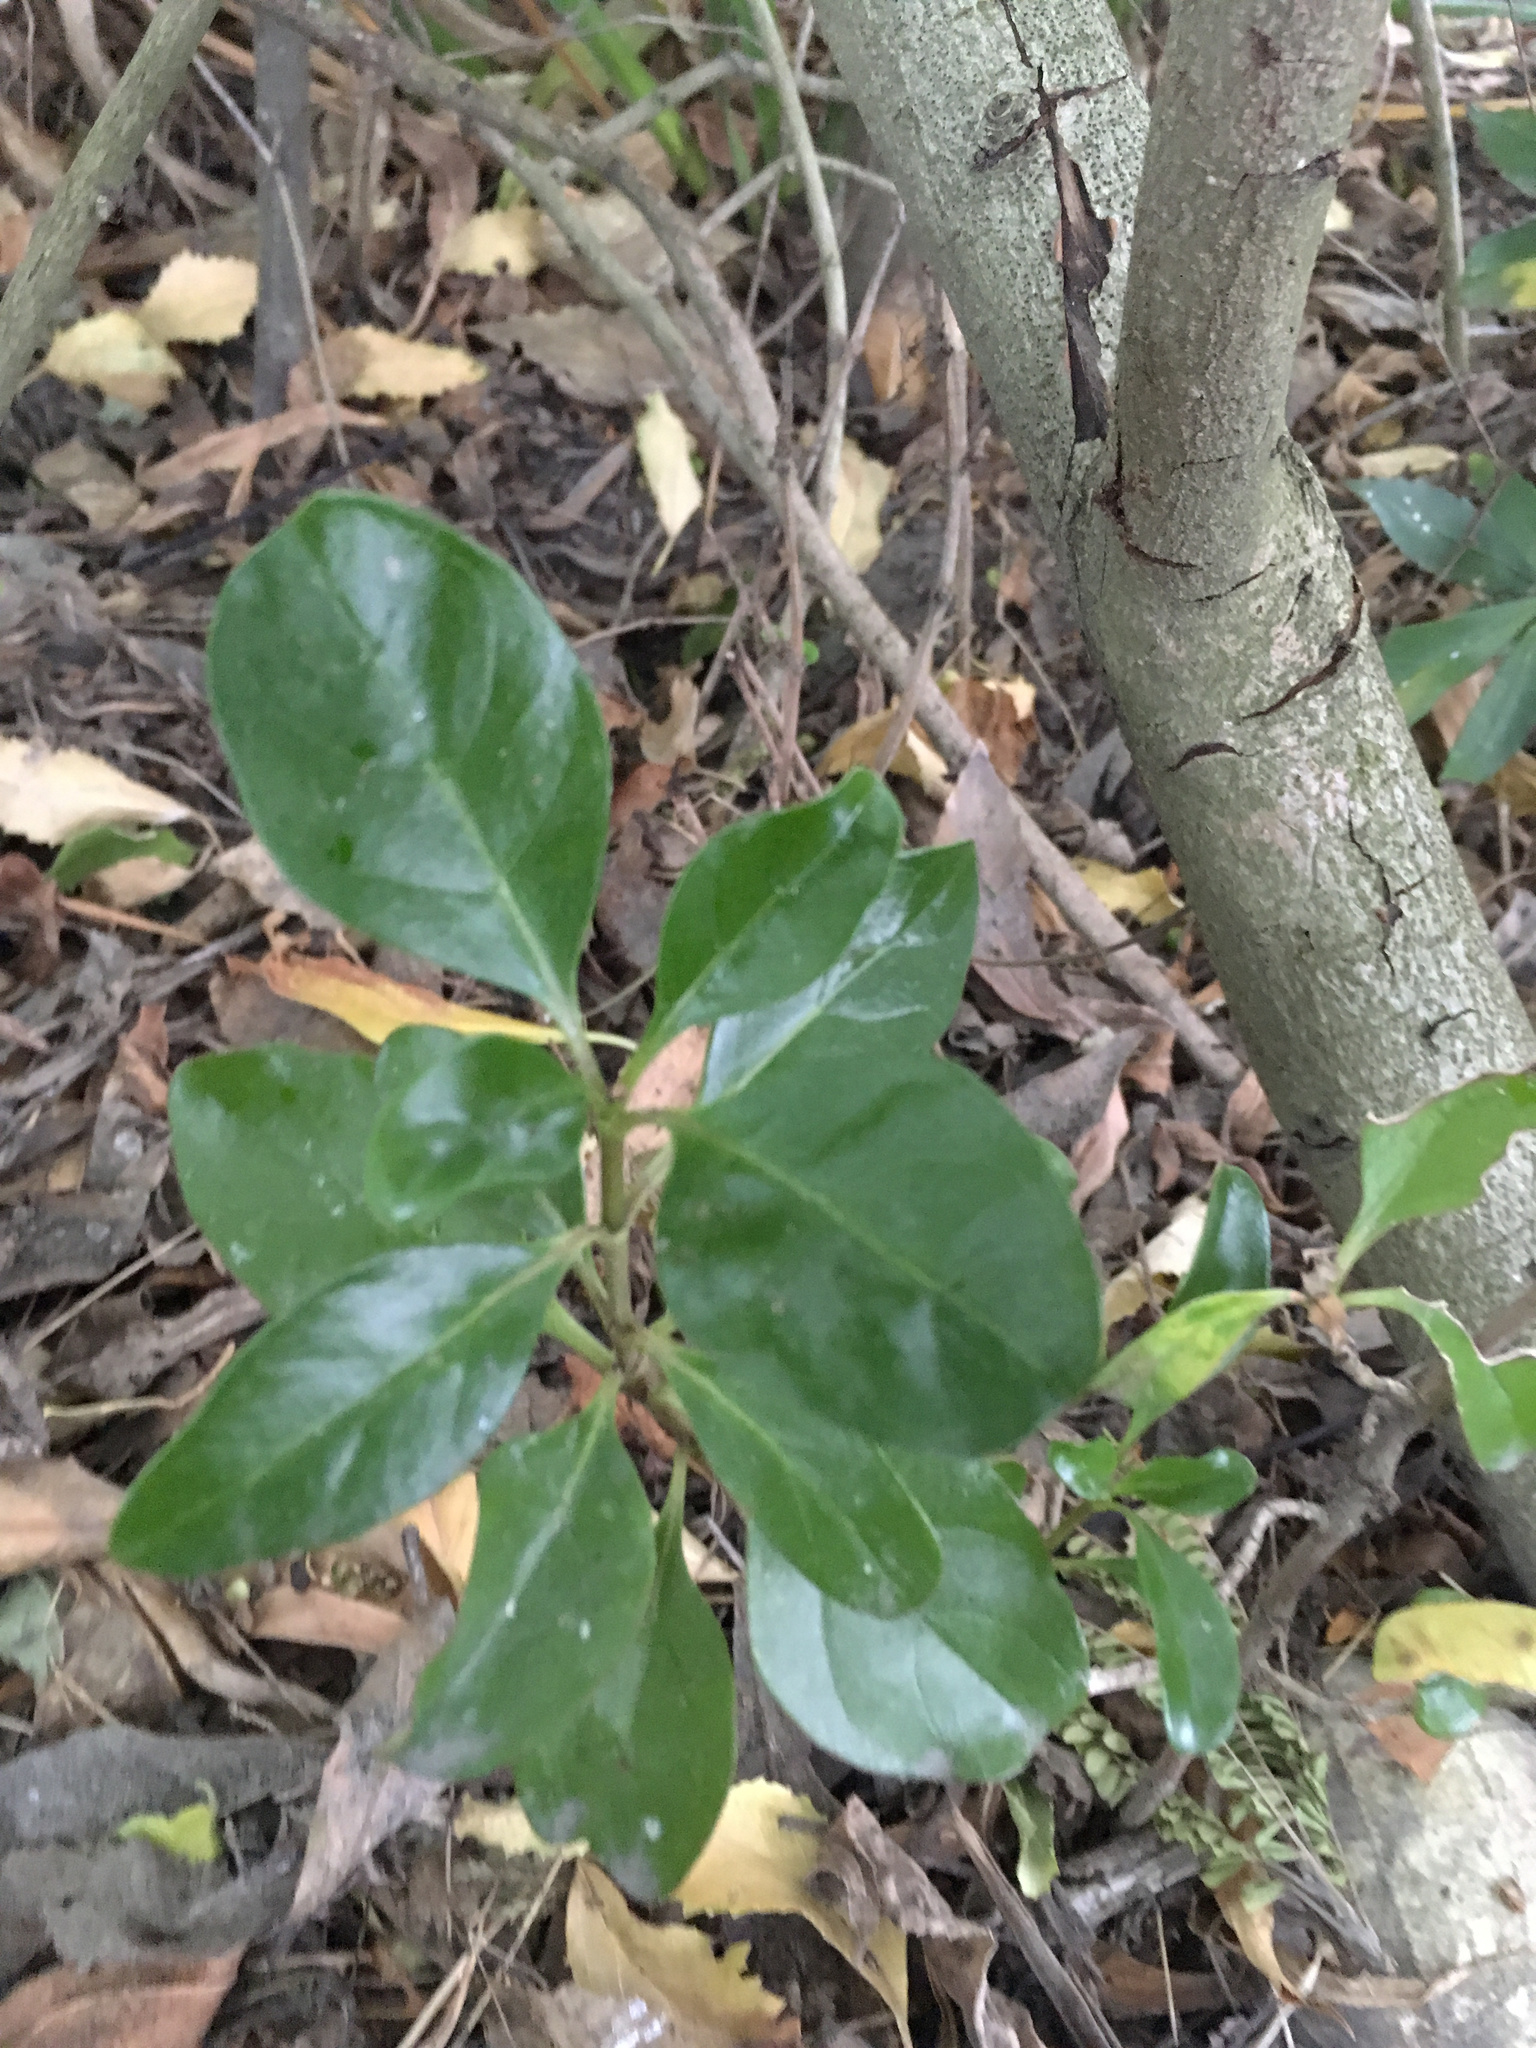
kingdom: Plantae
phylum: Tracheophyta
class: Magnoliopsida
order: Gentianales
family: Rubiaceae
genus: Coprosma
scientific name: Coprosma repens
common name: Tree bedstraw
